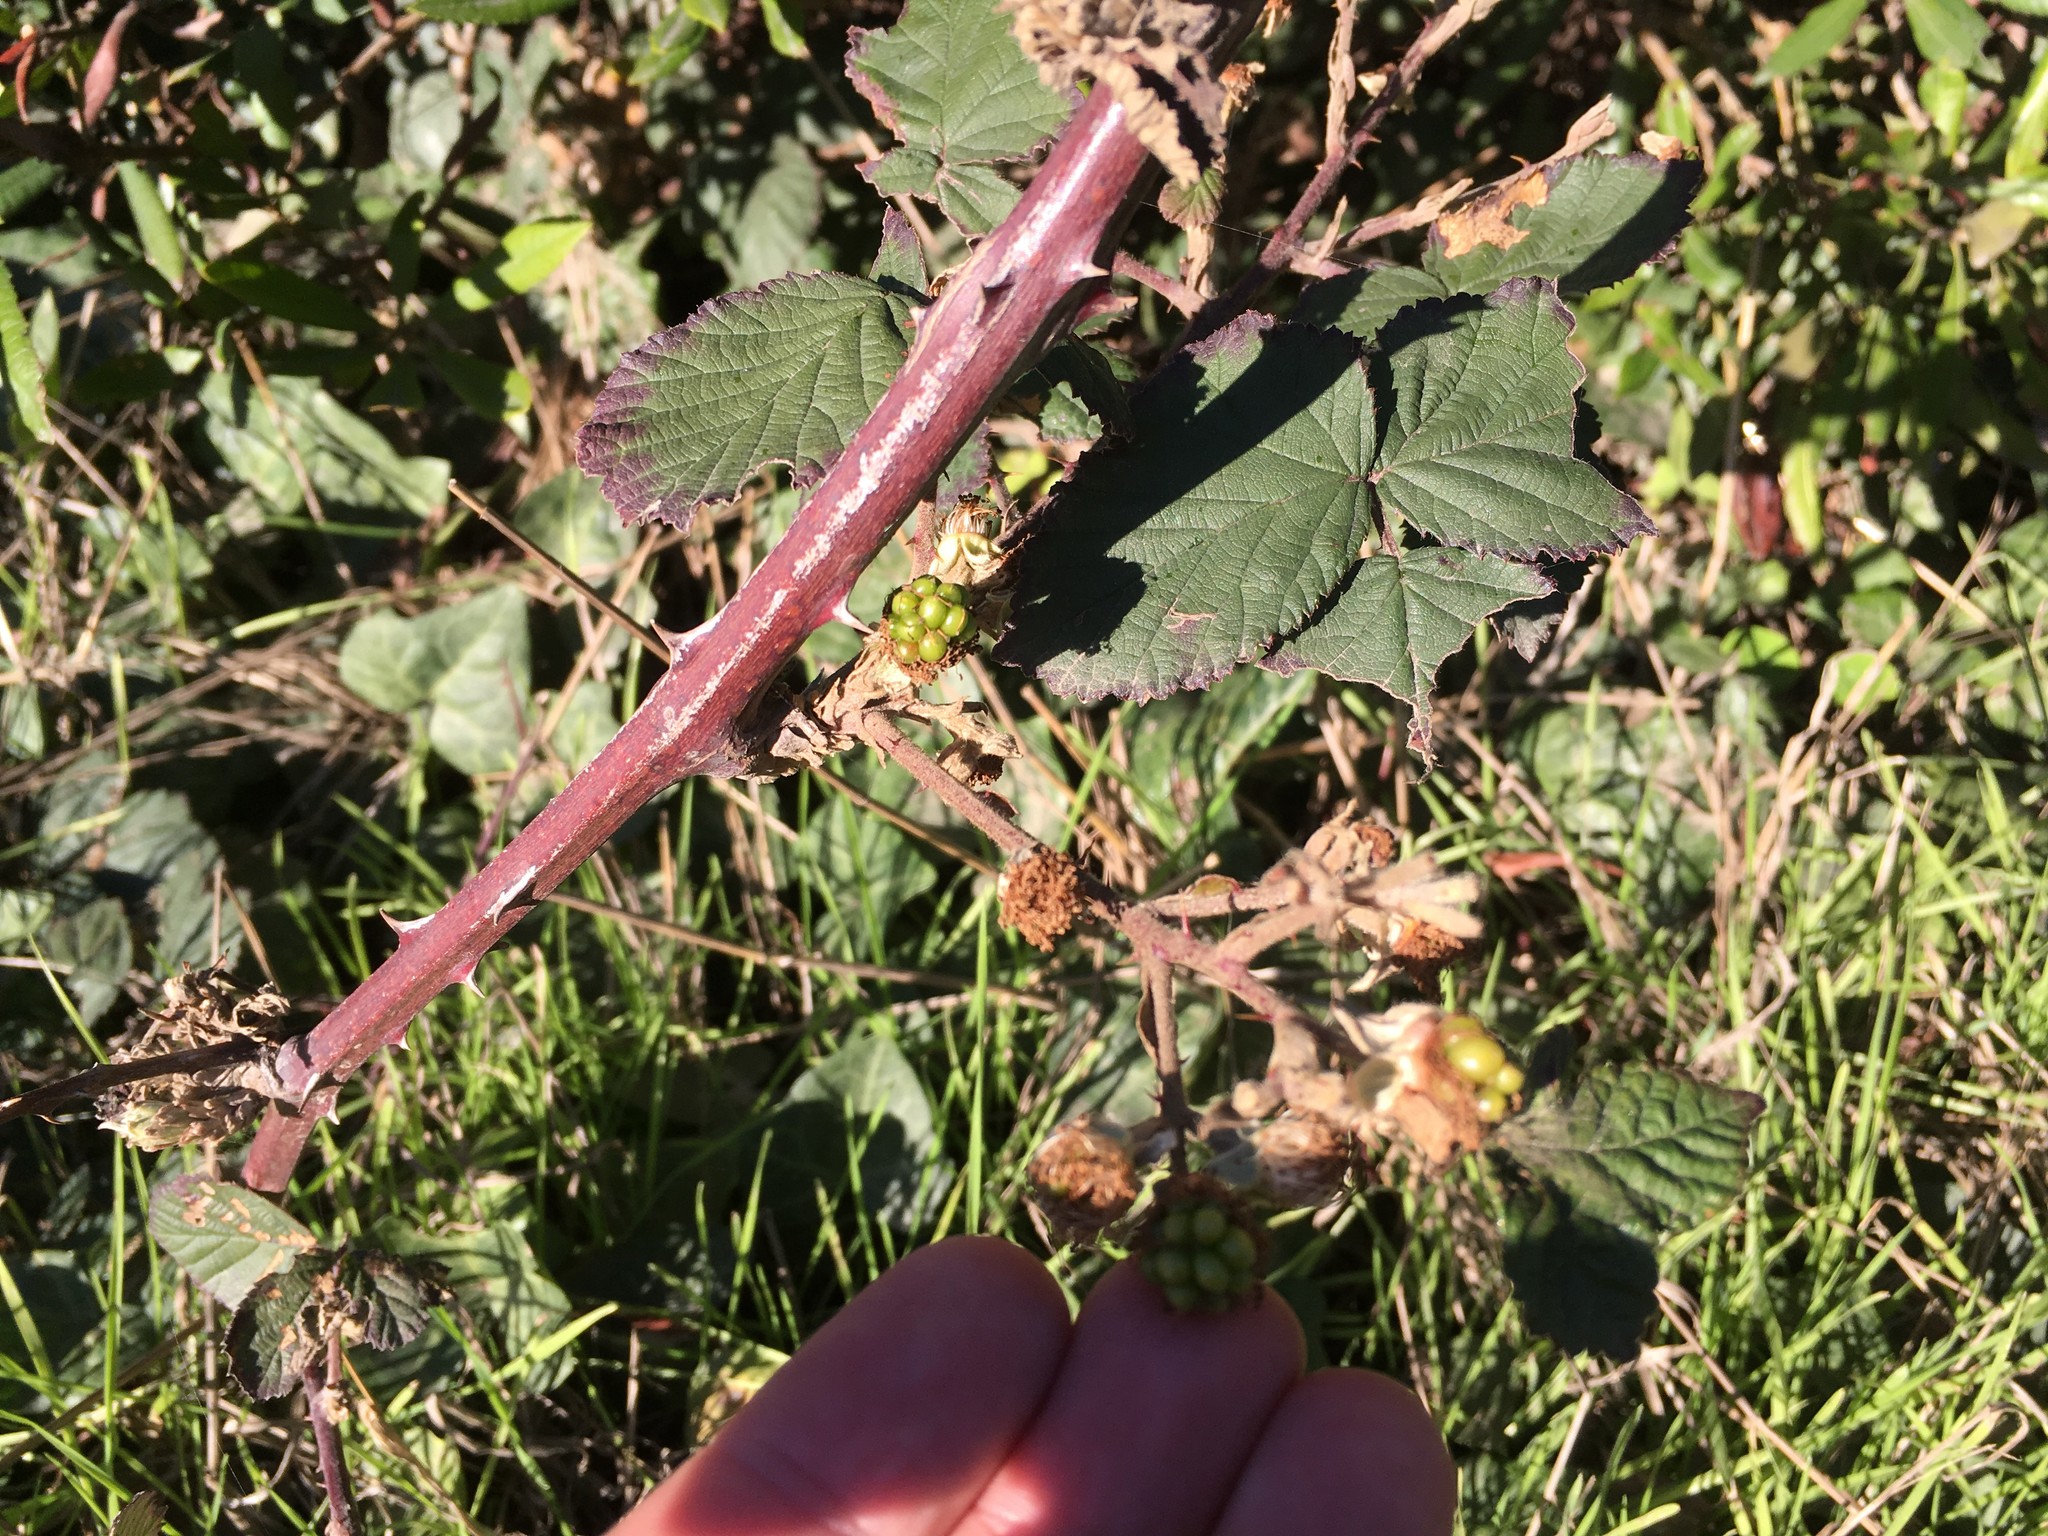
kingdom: Plantae
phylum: Tracheophyta
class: Magnoliopsida
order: Rosales
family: Rosaceae
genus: Rubus
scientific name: Rubus armeniacus
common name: Himalayan blackberry
